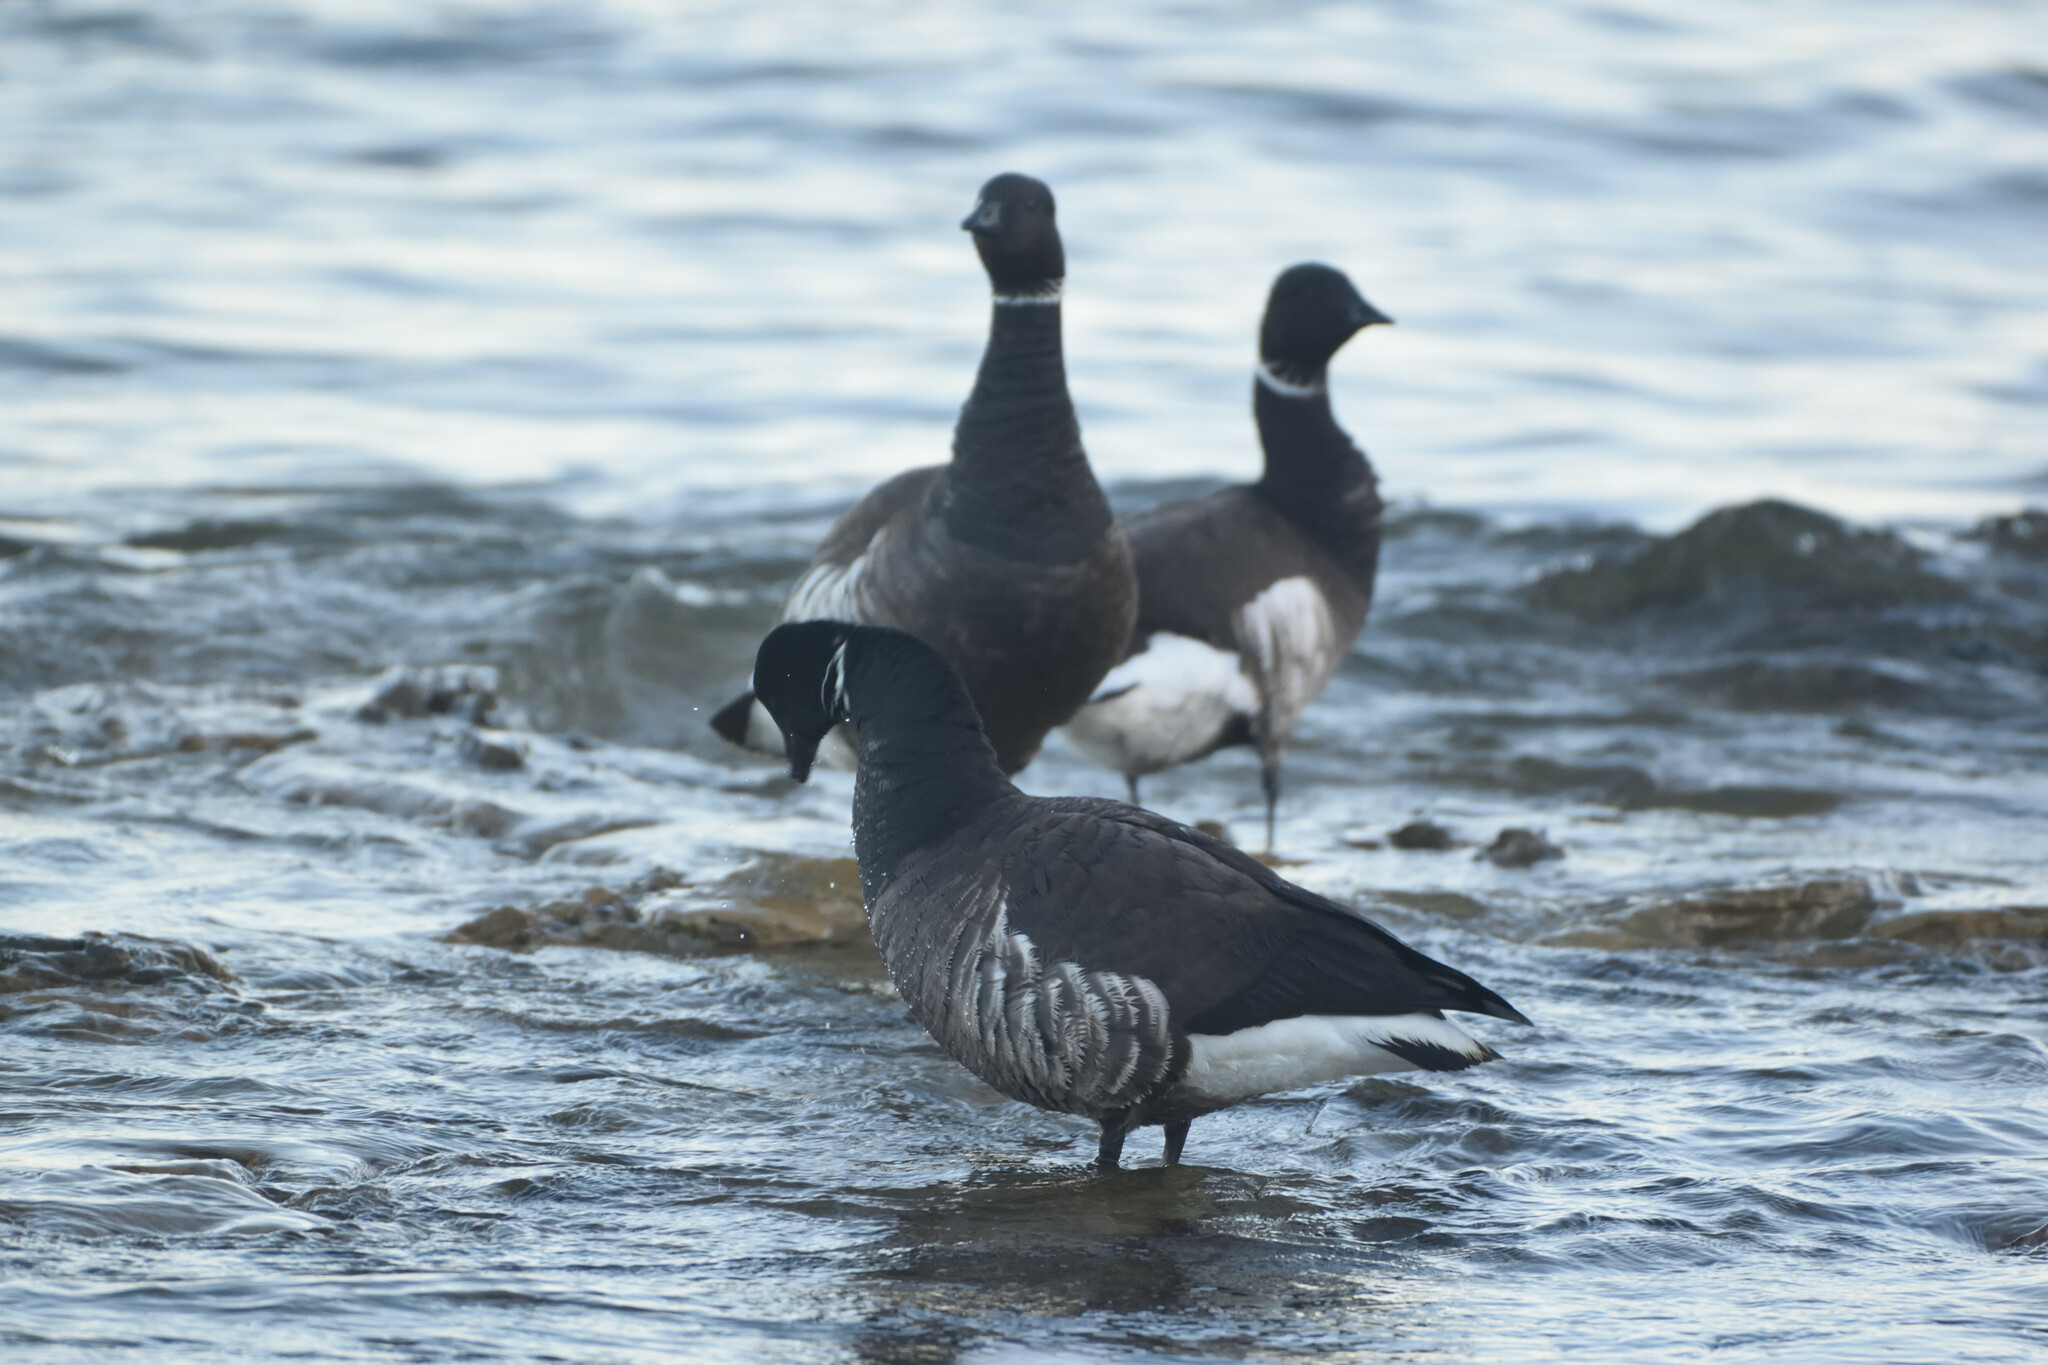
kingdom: Animalia
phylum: Chordata
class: Aves
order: Anseriformes
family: Anatidae
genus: Branta
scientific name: Branta bernicla
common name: Brant goose
